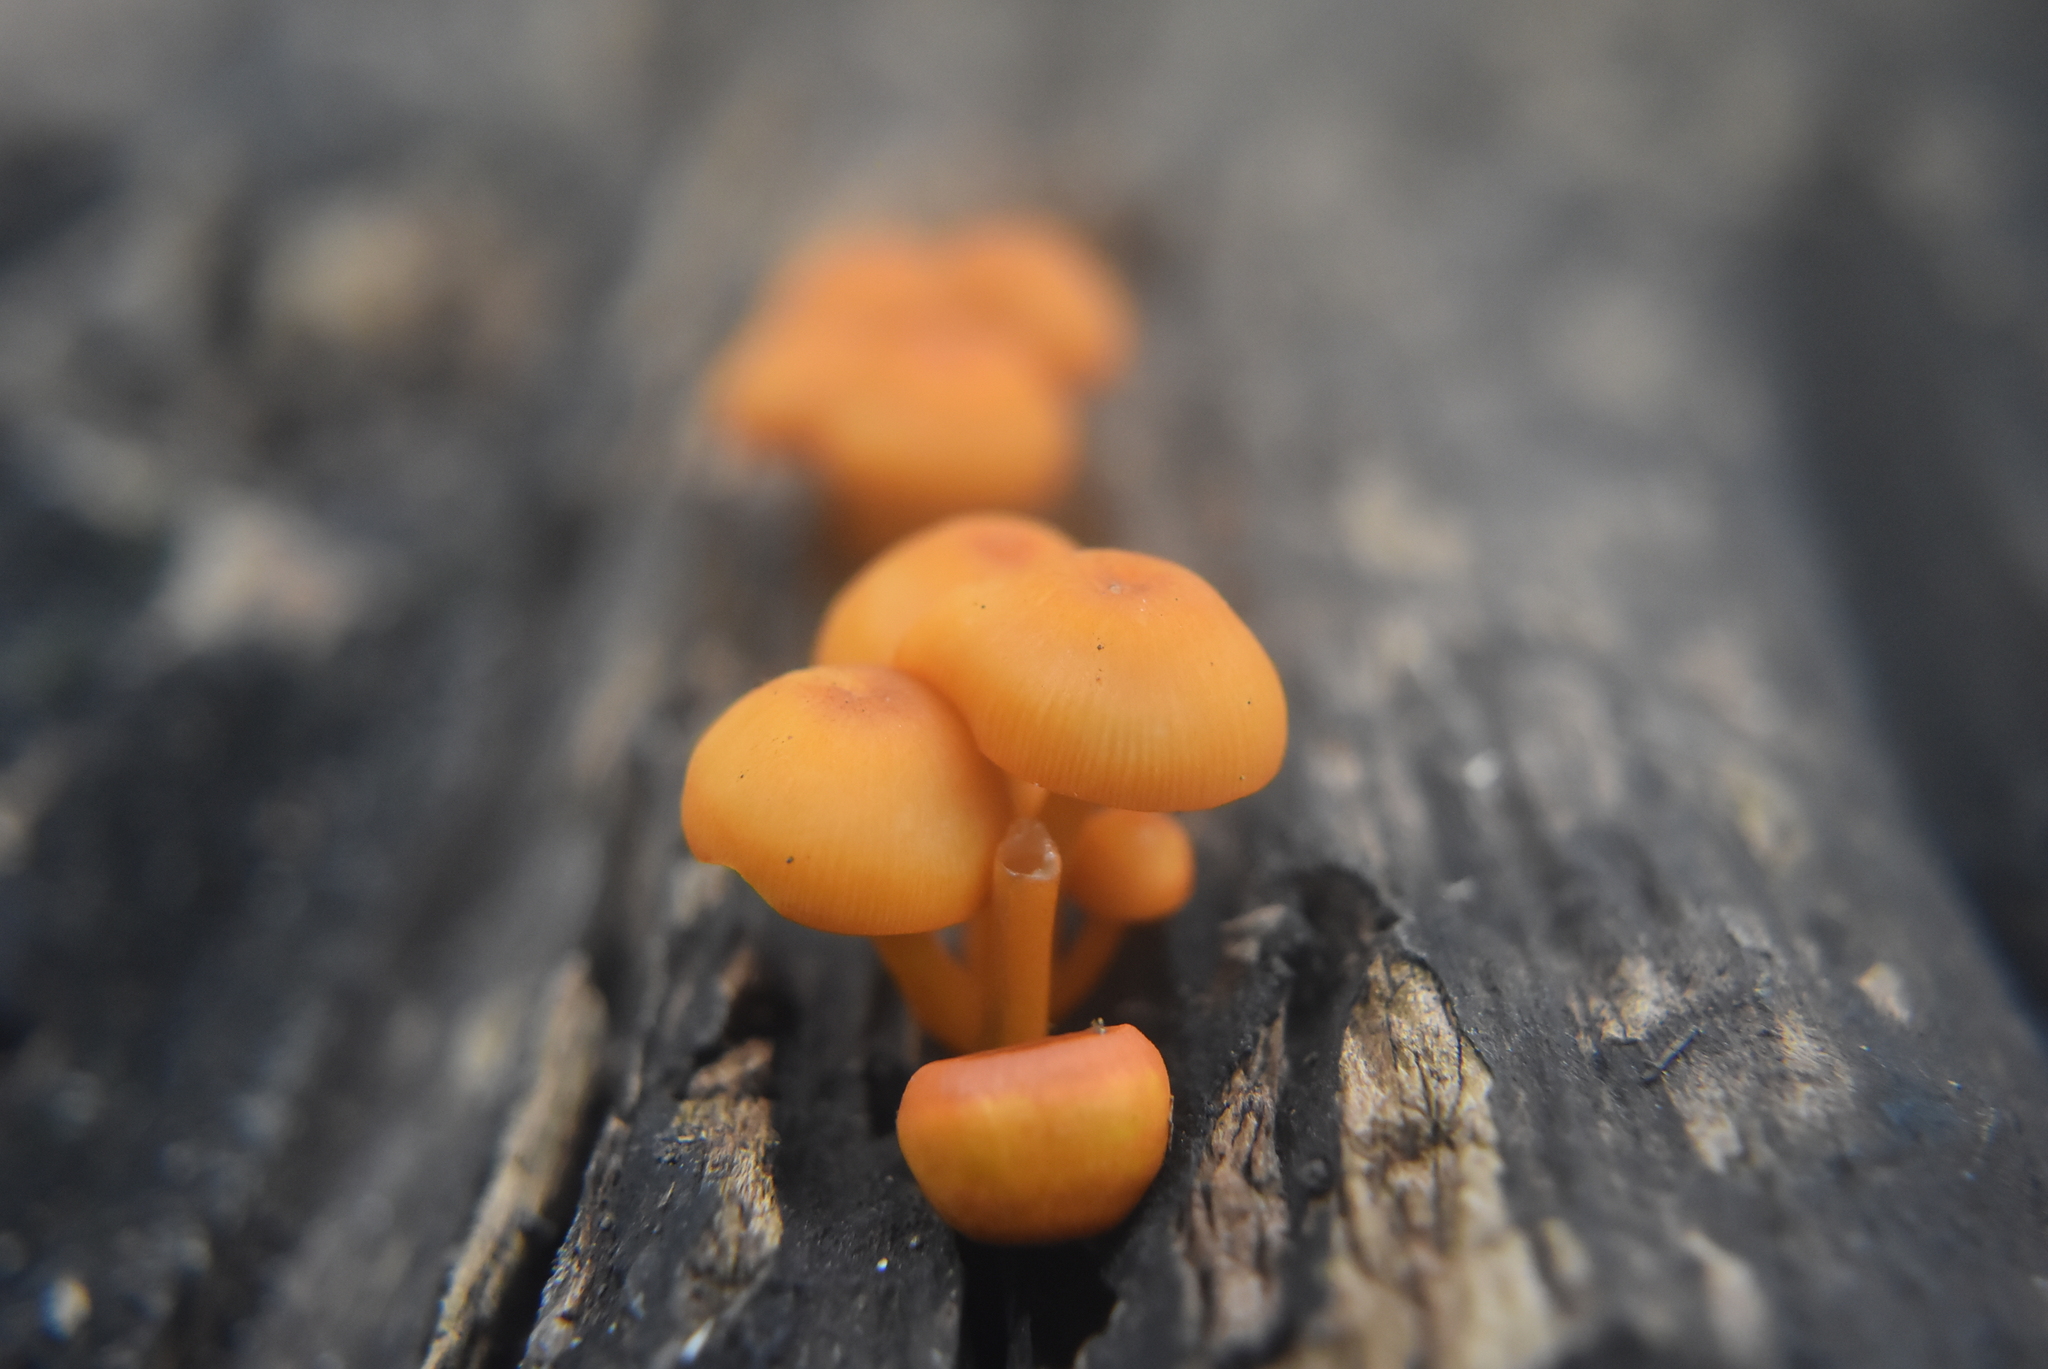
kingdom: Fungi
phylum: Basidiomycota
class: Agaricomycetes
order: Agaricales
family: Mycenaceae
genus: Mycena
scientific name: Mycena leaiana
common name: Orange mycena
